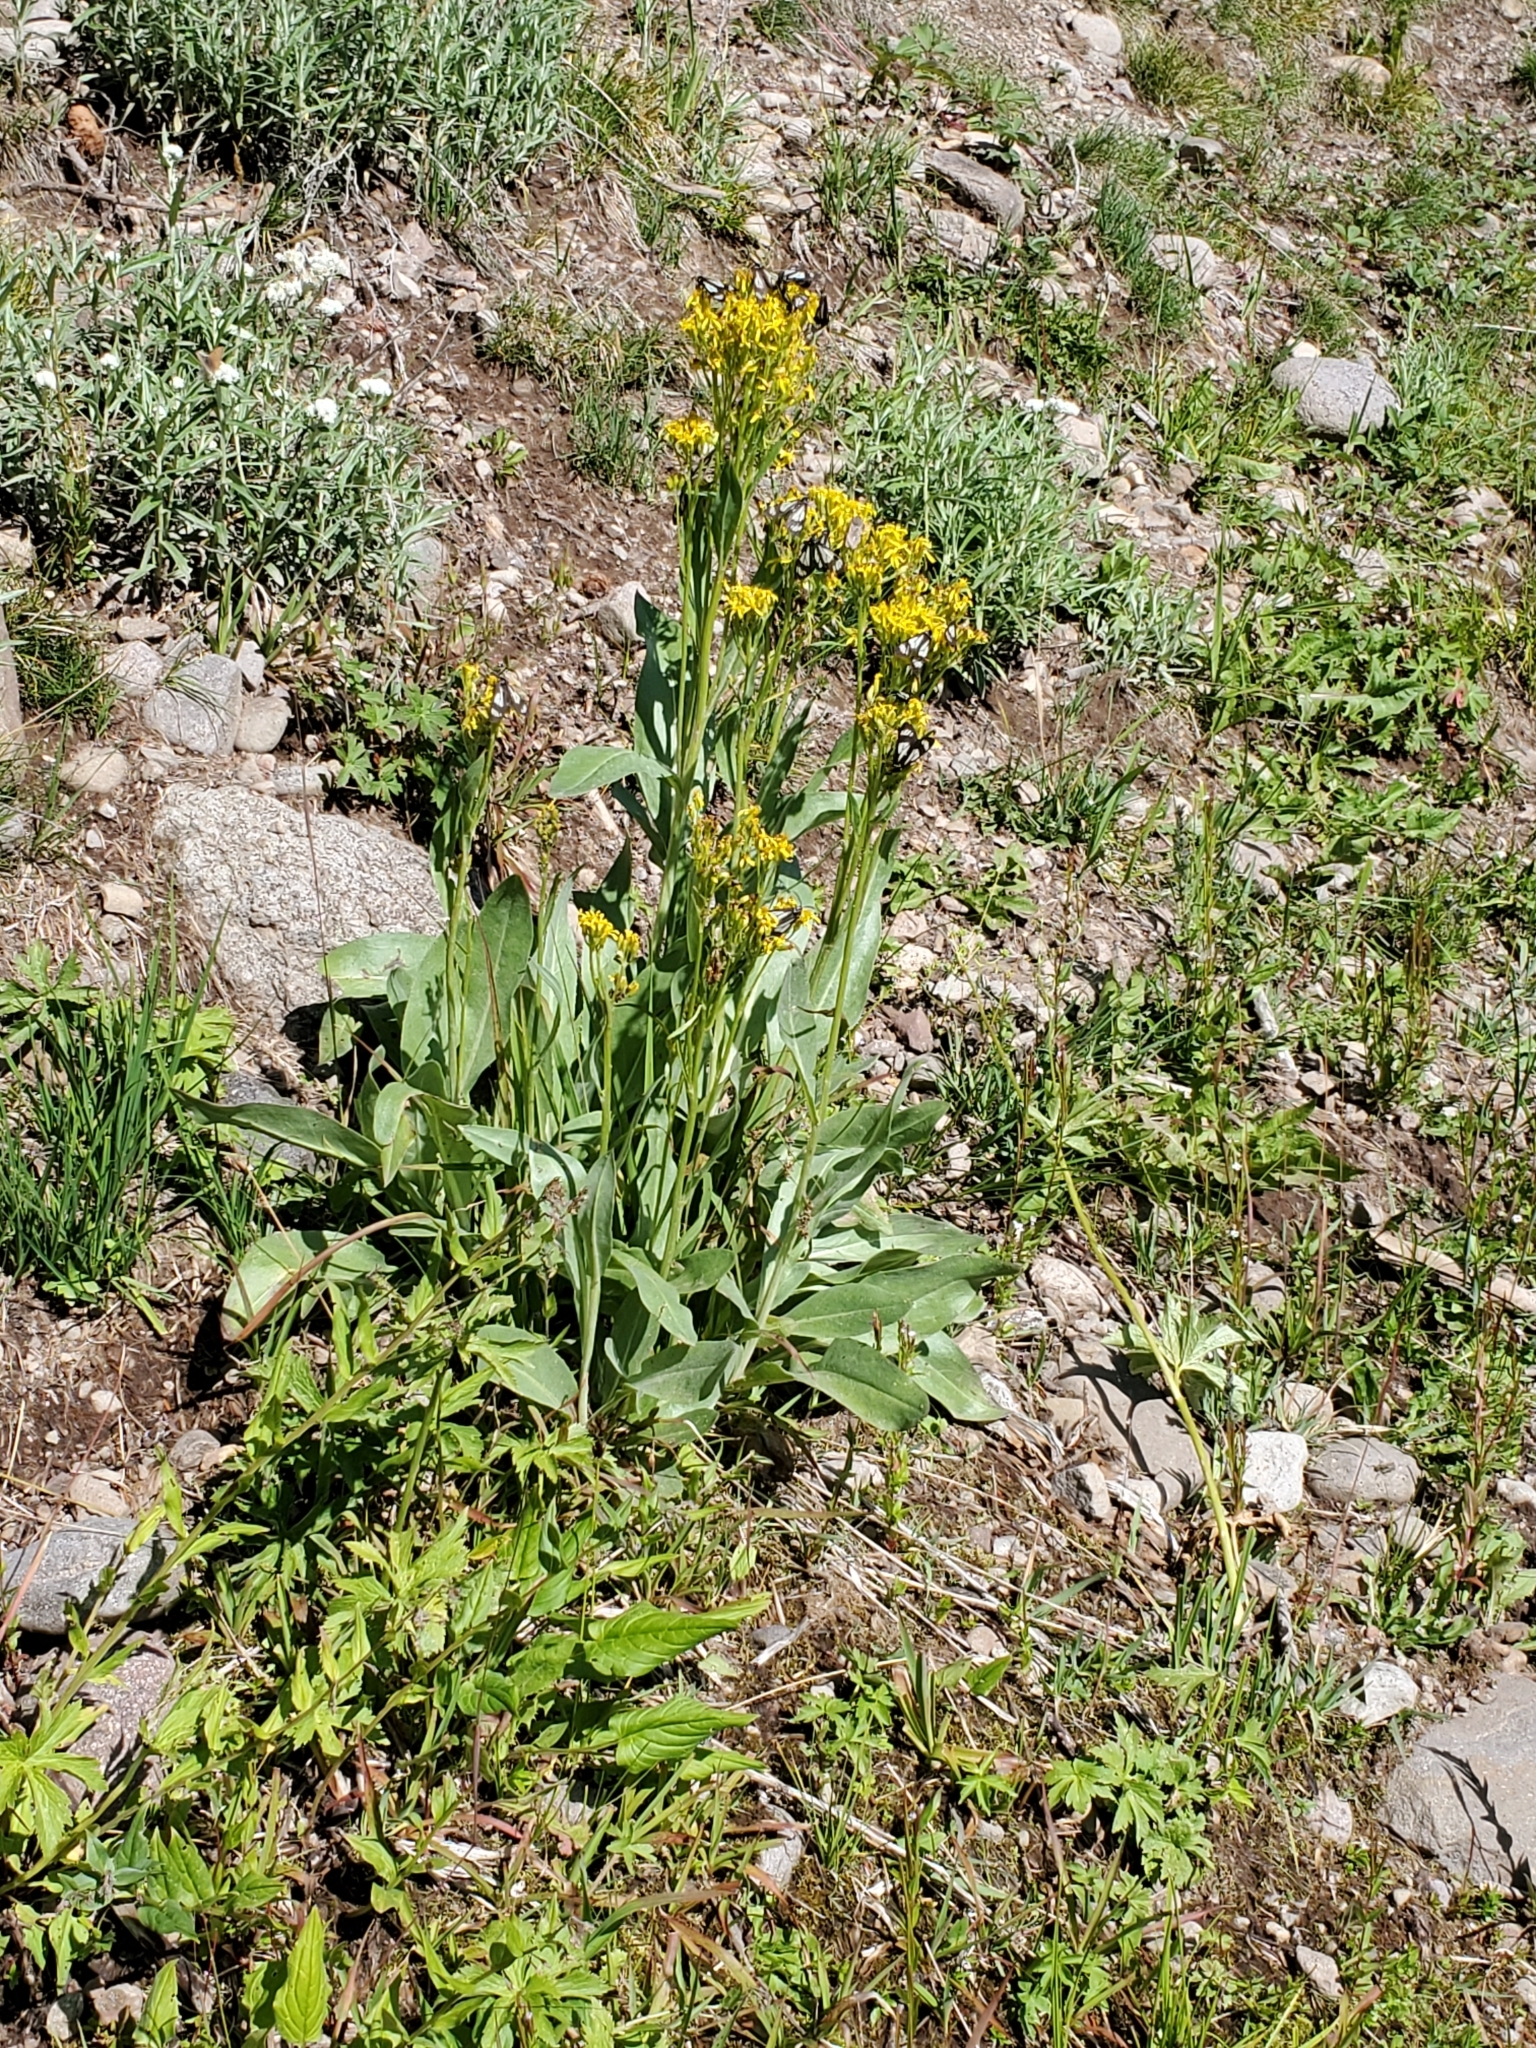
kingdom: Plantae
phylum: Tracheophyta
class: Magnoliopsida
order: Asterales
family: Asteraceae
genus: Senecio
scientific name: Senecio atratus
